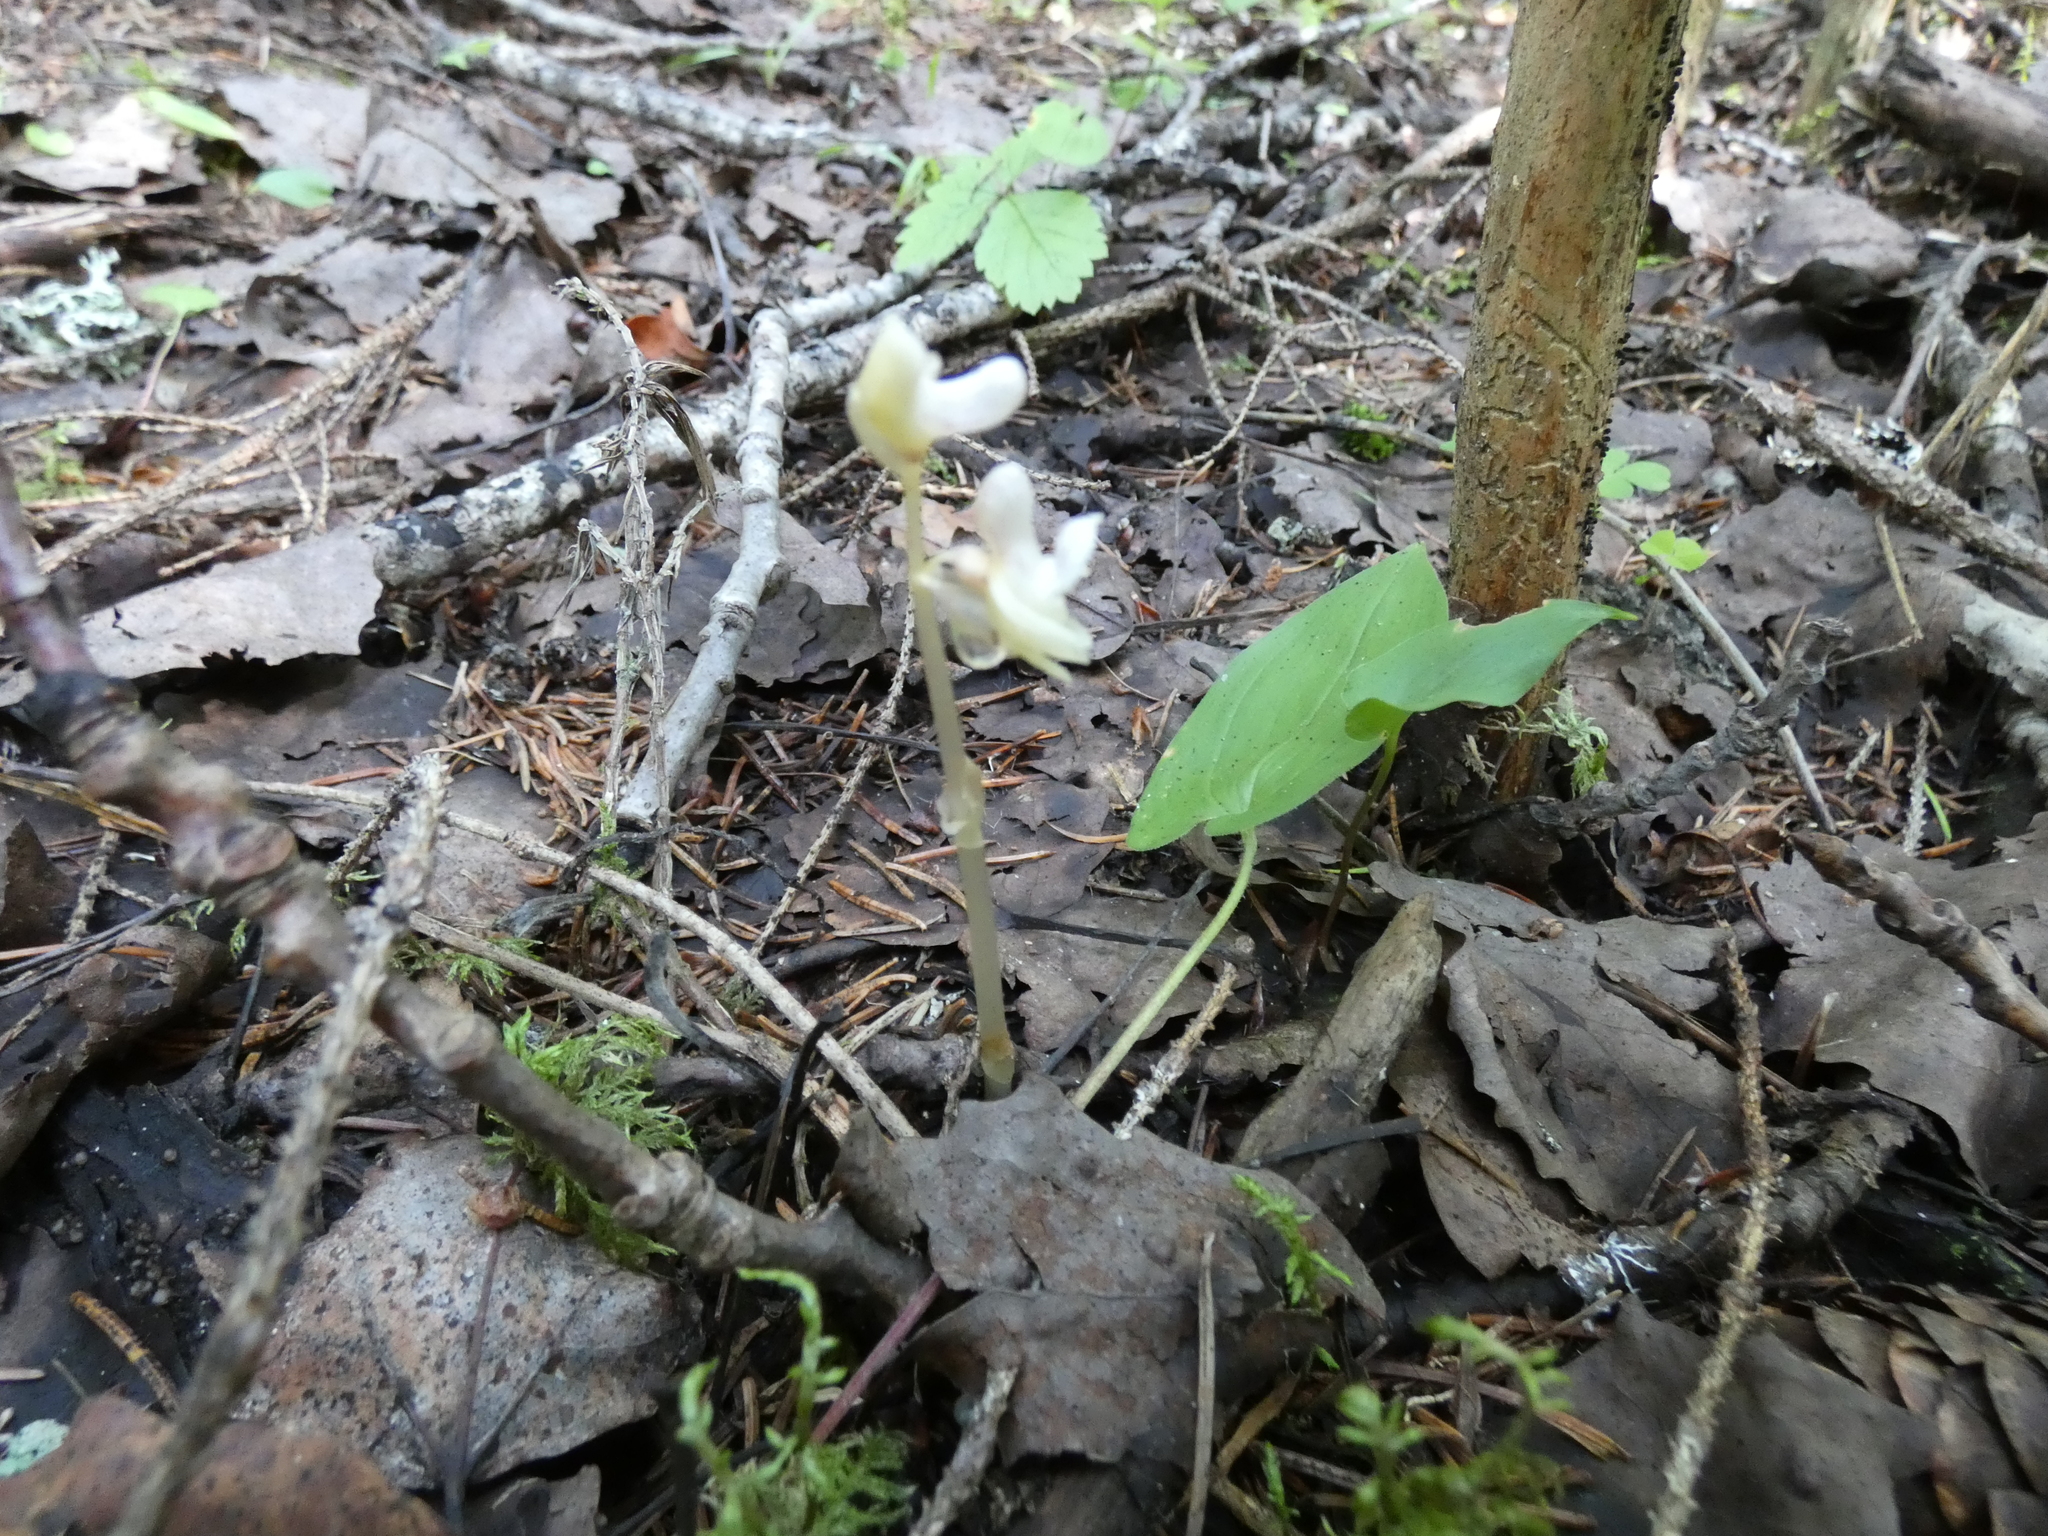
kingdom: Plantae
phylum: Tracheophyta
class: Liliopsida
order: Asparagales
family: Orchidaceae
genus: Epipogium
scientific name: Epipogium aphyllum
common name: Ghost orchid
